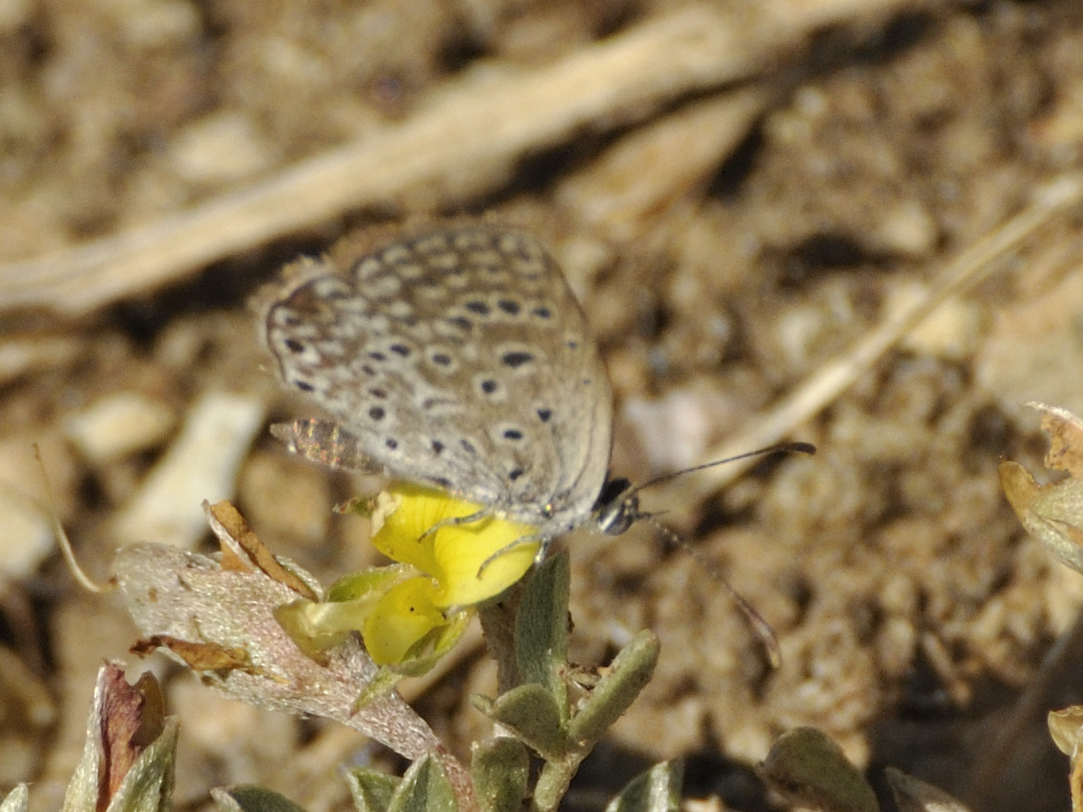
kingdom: Animalia
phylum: Arthropoda
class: Insecta
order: Lepidoptera
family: Lycaenidae
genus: Actizera
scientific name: Actizera lucida
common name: Rayed blue
